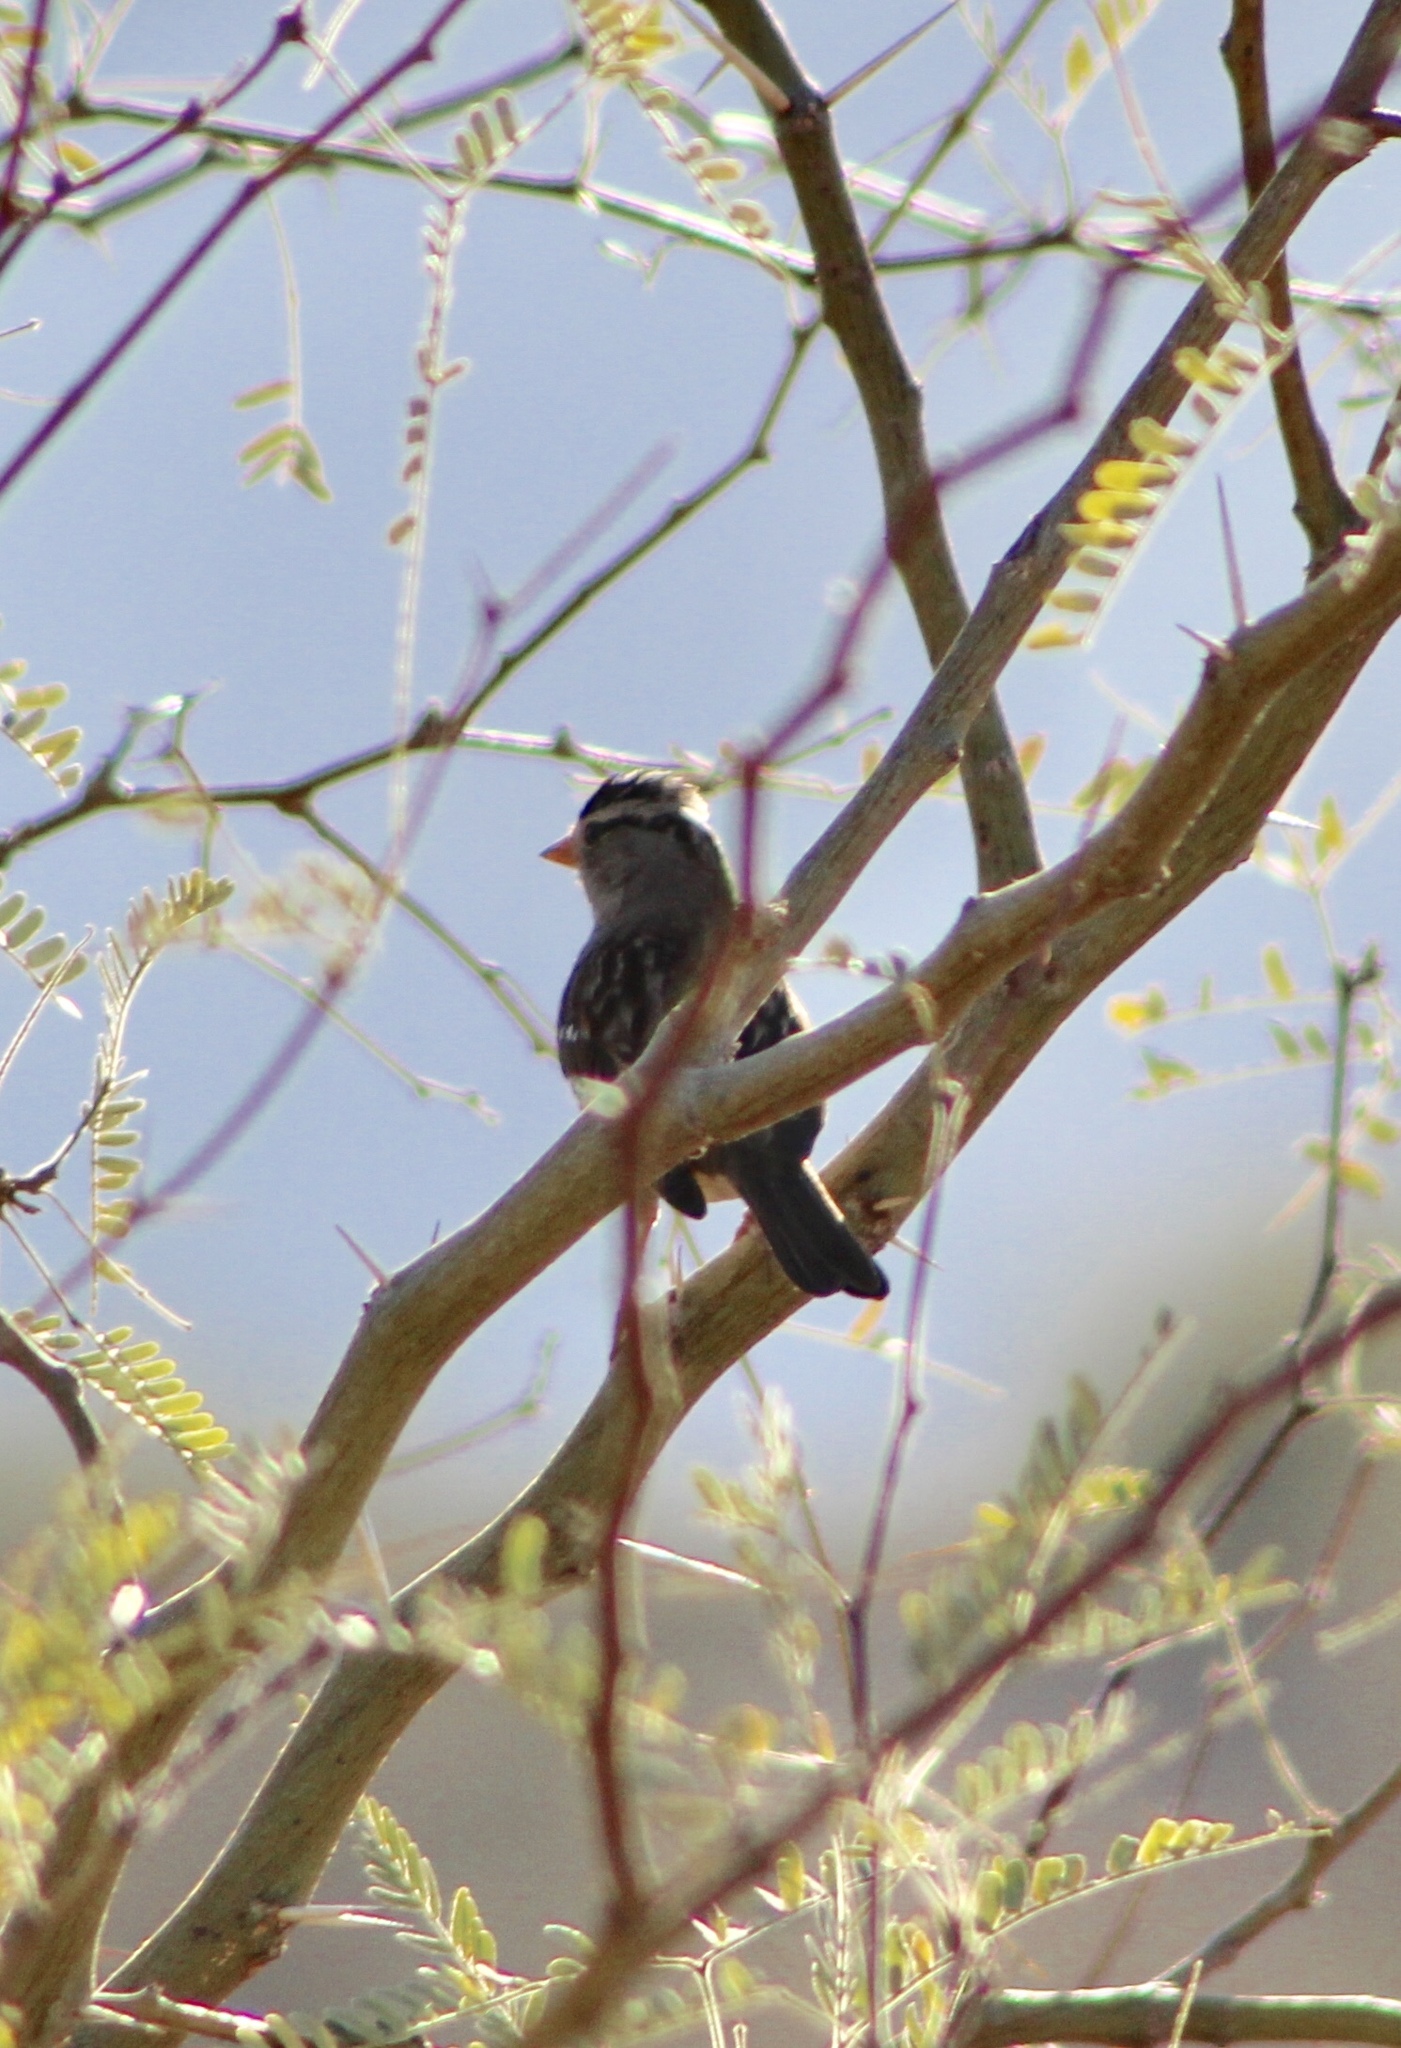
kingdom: Animalia
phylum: Chordata
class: Aves
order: Passeriformes
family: Passerellidae
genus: Zonotrichia
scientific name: Zonotrichia leucophrys
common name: White-crowned sparrow
